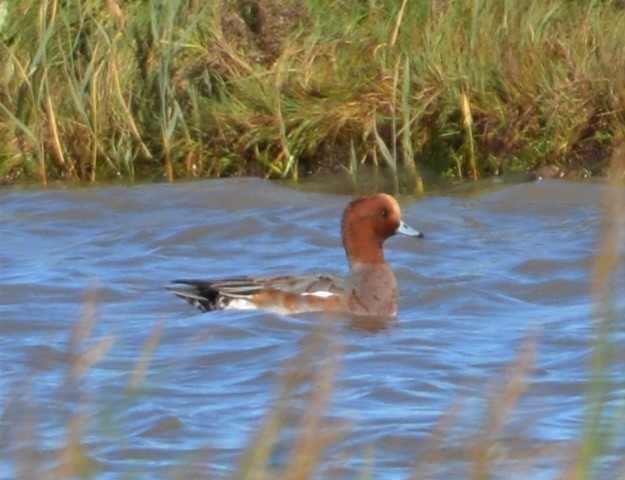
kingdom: Animalia
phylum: Chordata
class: Aves
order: Anseriformes
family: Anatidae
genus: Mareca
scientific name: Mareca penelope
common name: Eurasian wigeon
